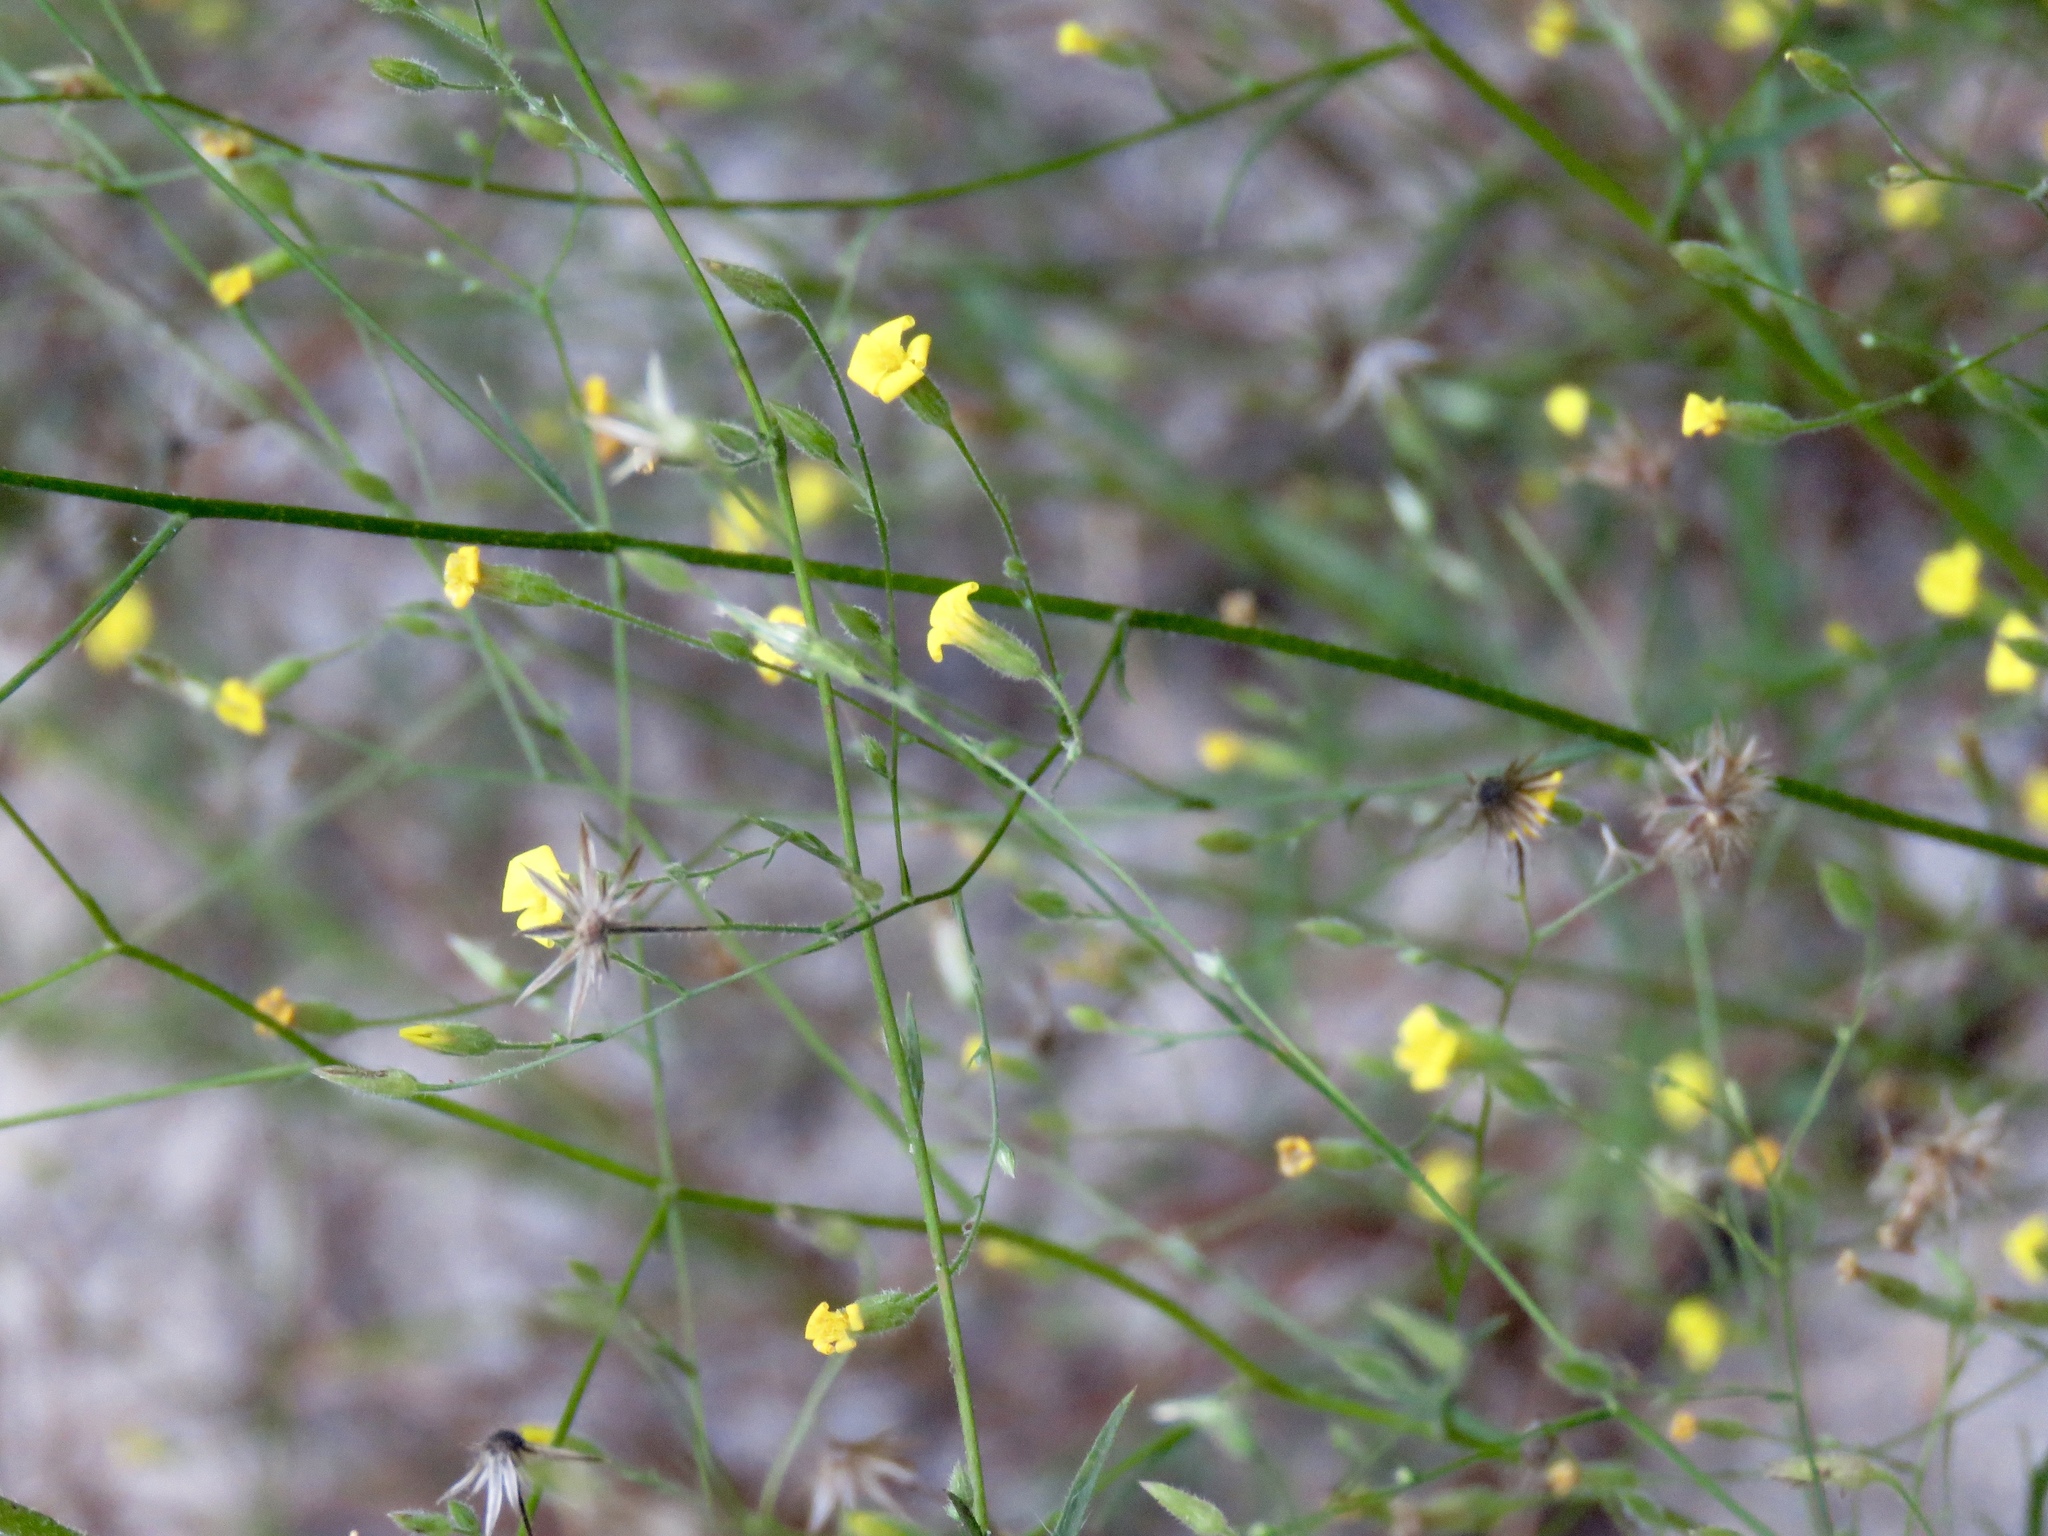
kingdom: Plantae
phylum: Tracheophyta
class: Magnoliopsida
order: Asterales
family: Asteraceae
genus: Croptilon
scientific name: Croptilon divaricatum
